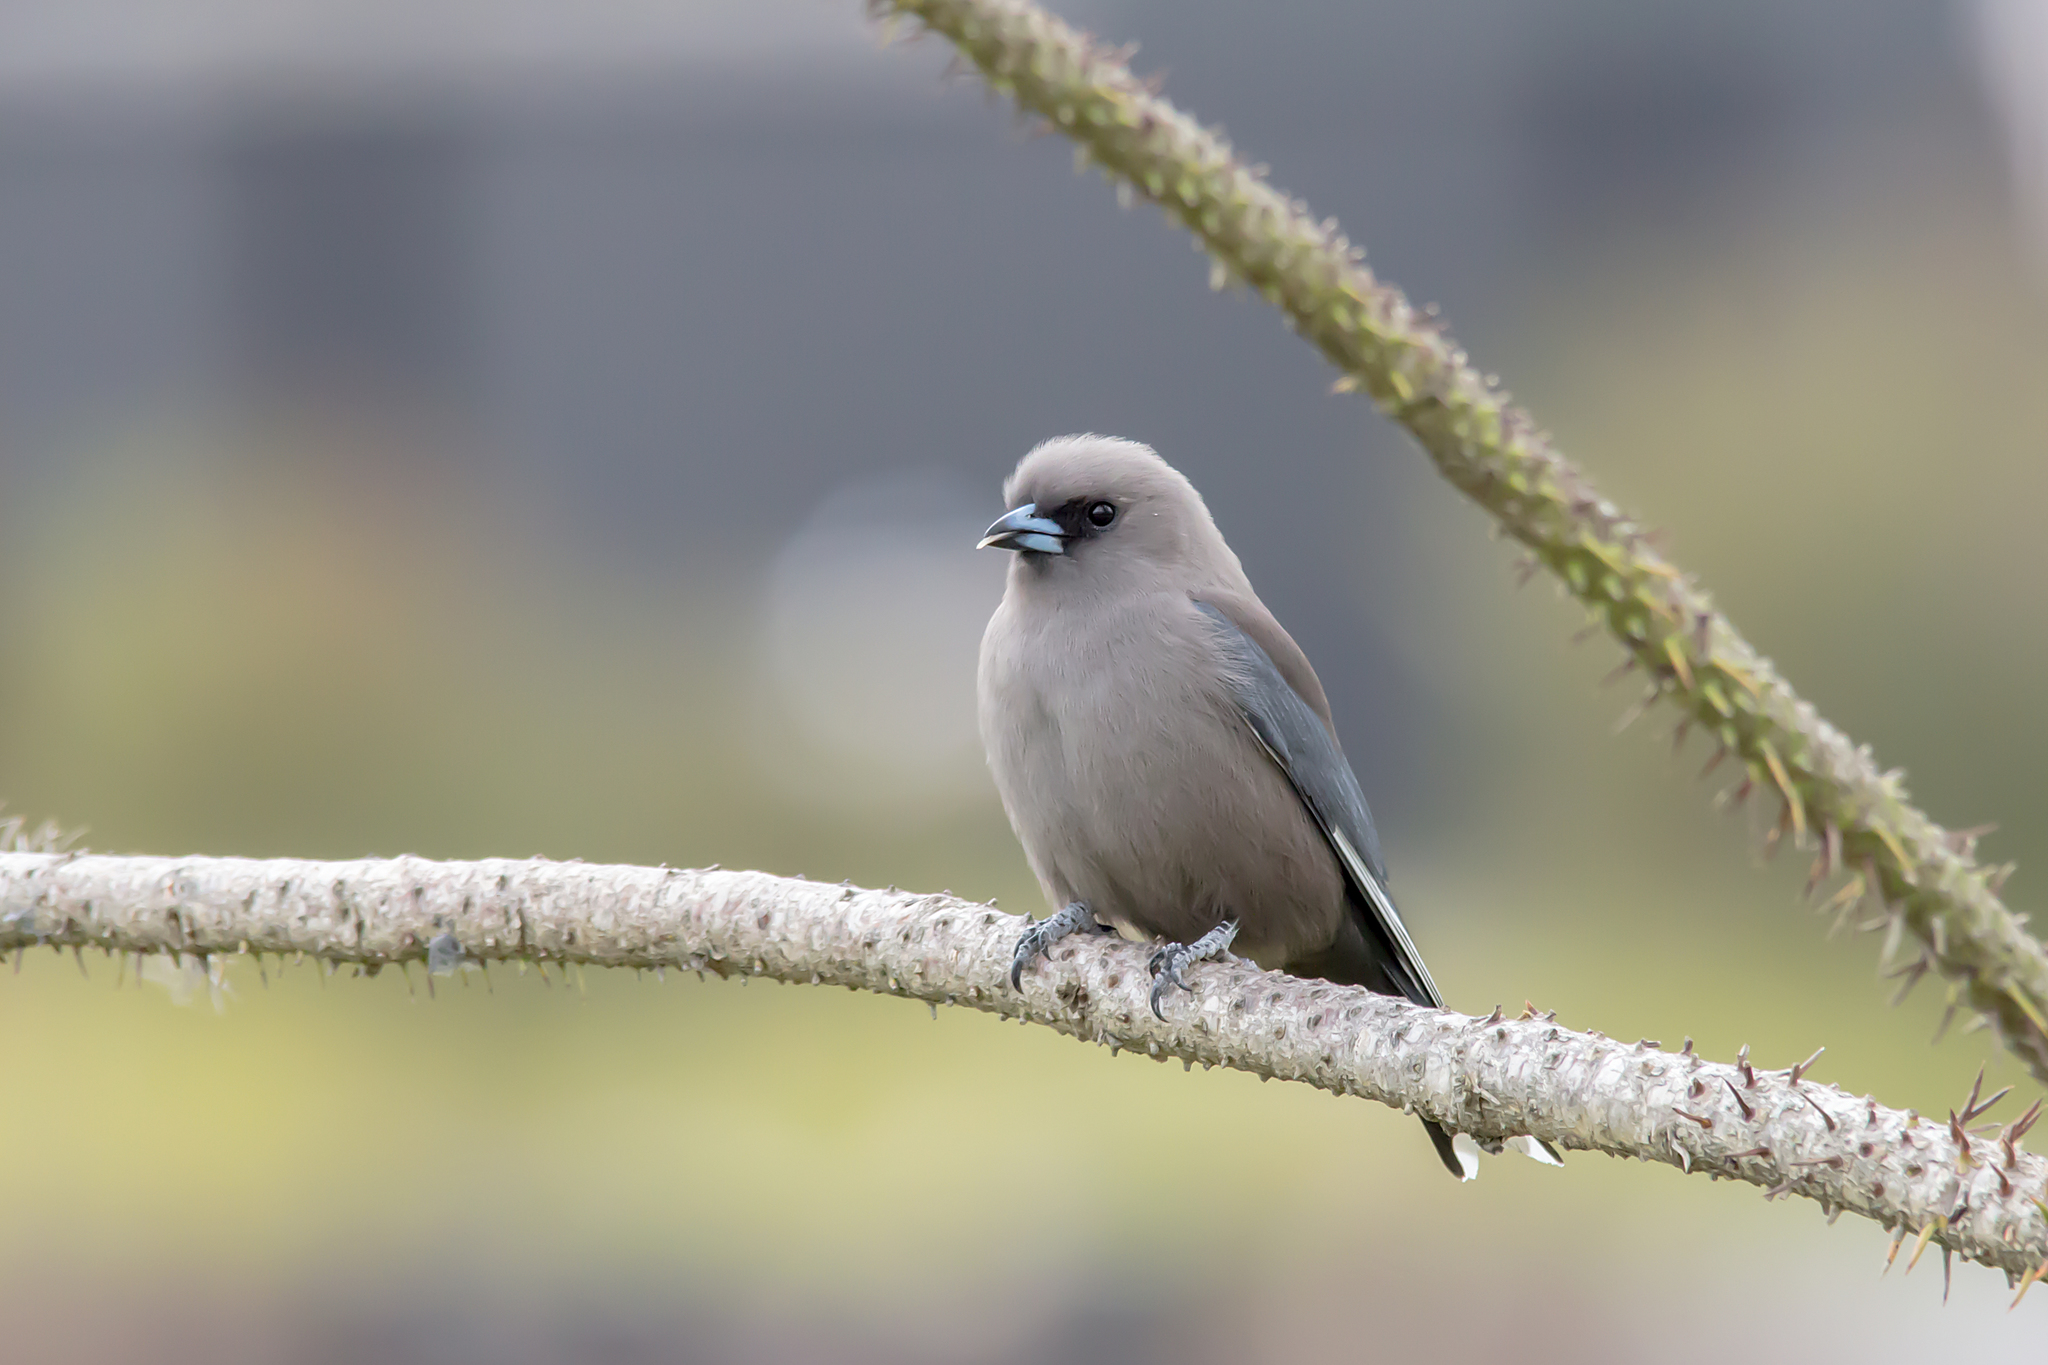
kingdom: Animalia
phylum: Chordata
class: Aves
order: Passeriformes
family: Artamidae
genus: Artamus
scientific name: Artamus cyanopterus
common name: Dusky woodswallow
